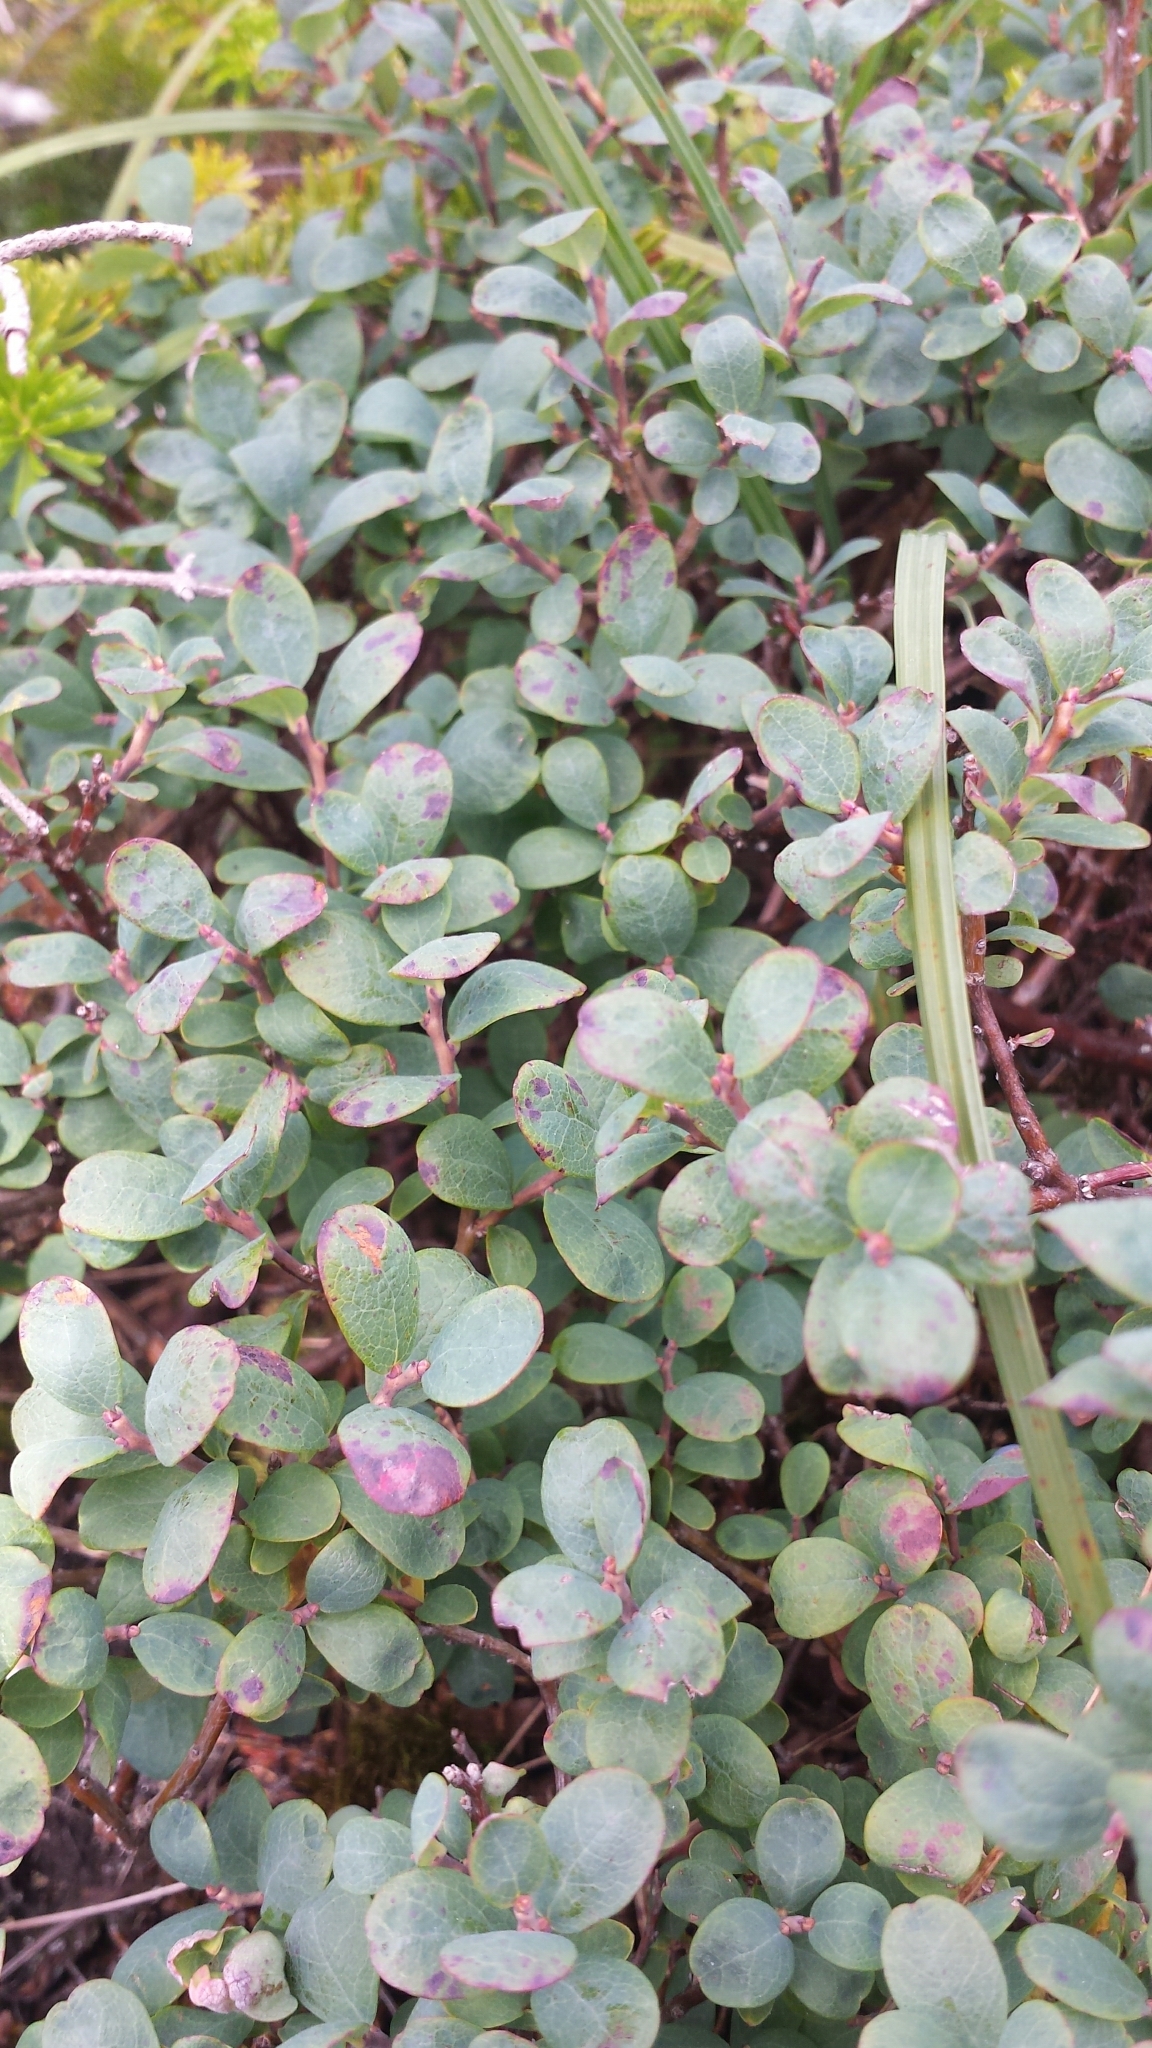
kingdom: Plantae
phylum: Tracheophyta
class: Magnoliopsida
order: Ericales
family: Ericaceae
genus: Vaccinium
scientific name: Vaccinium uliginosum
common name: Bog bilberry
